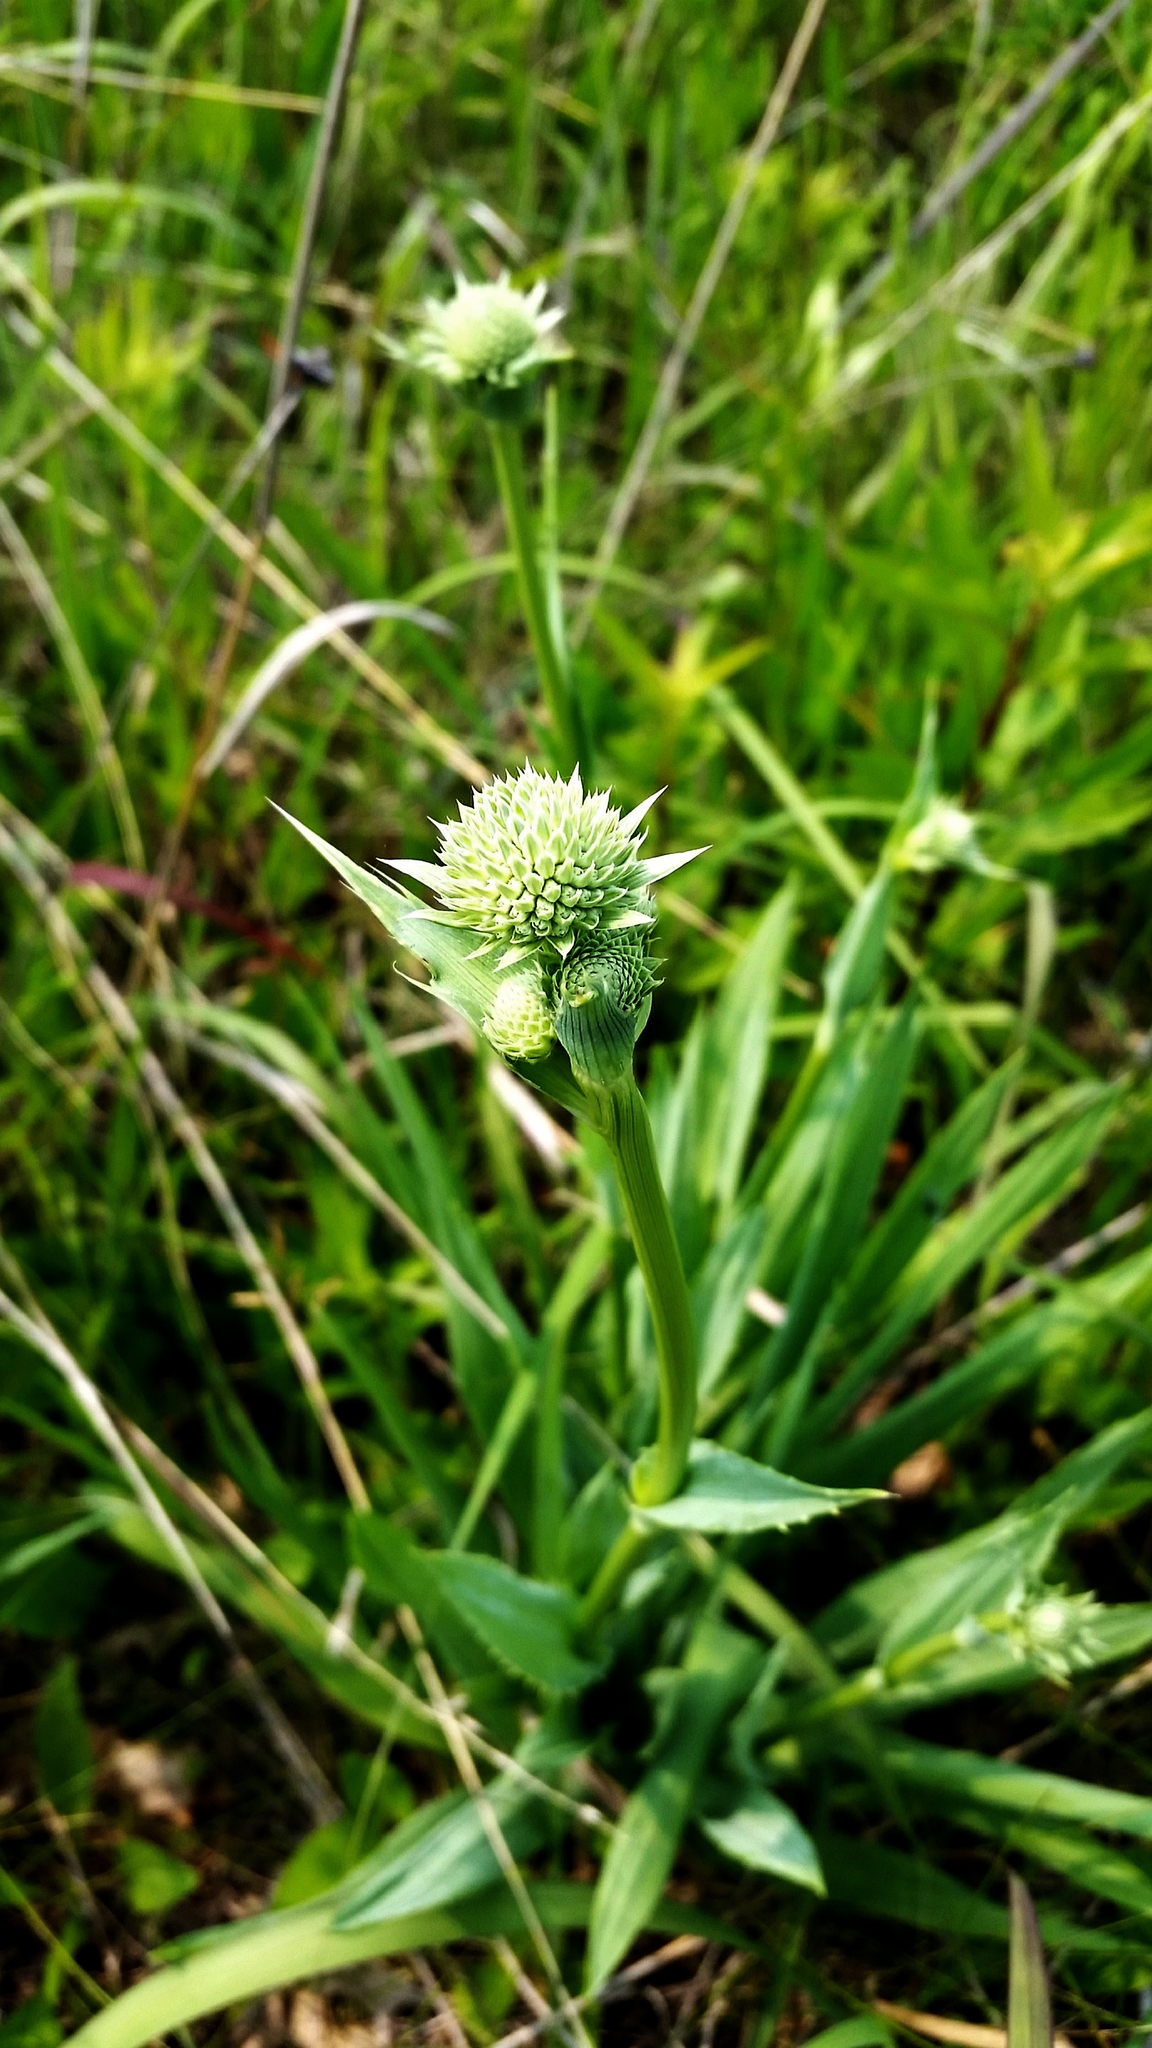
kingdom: Plantae
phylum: Tracheophyta
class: Magnoliopsida
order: Apiales
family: Apiaceae
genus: Eryngium
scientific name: Eryngium yuccifolium
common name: Button eryngo
